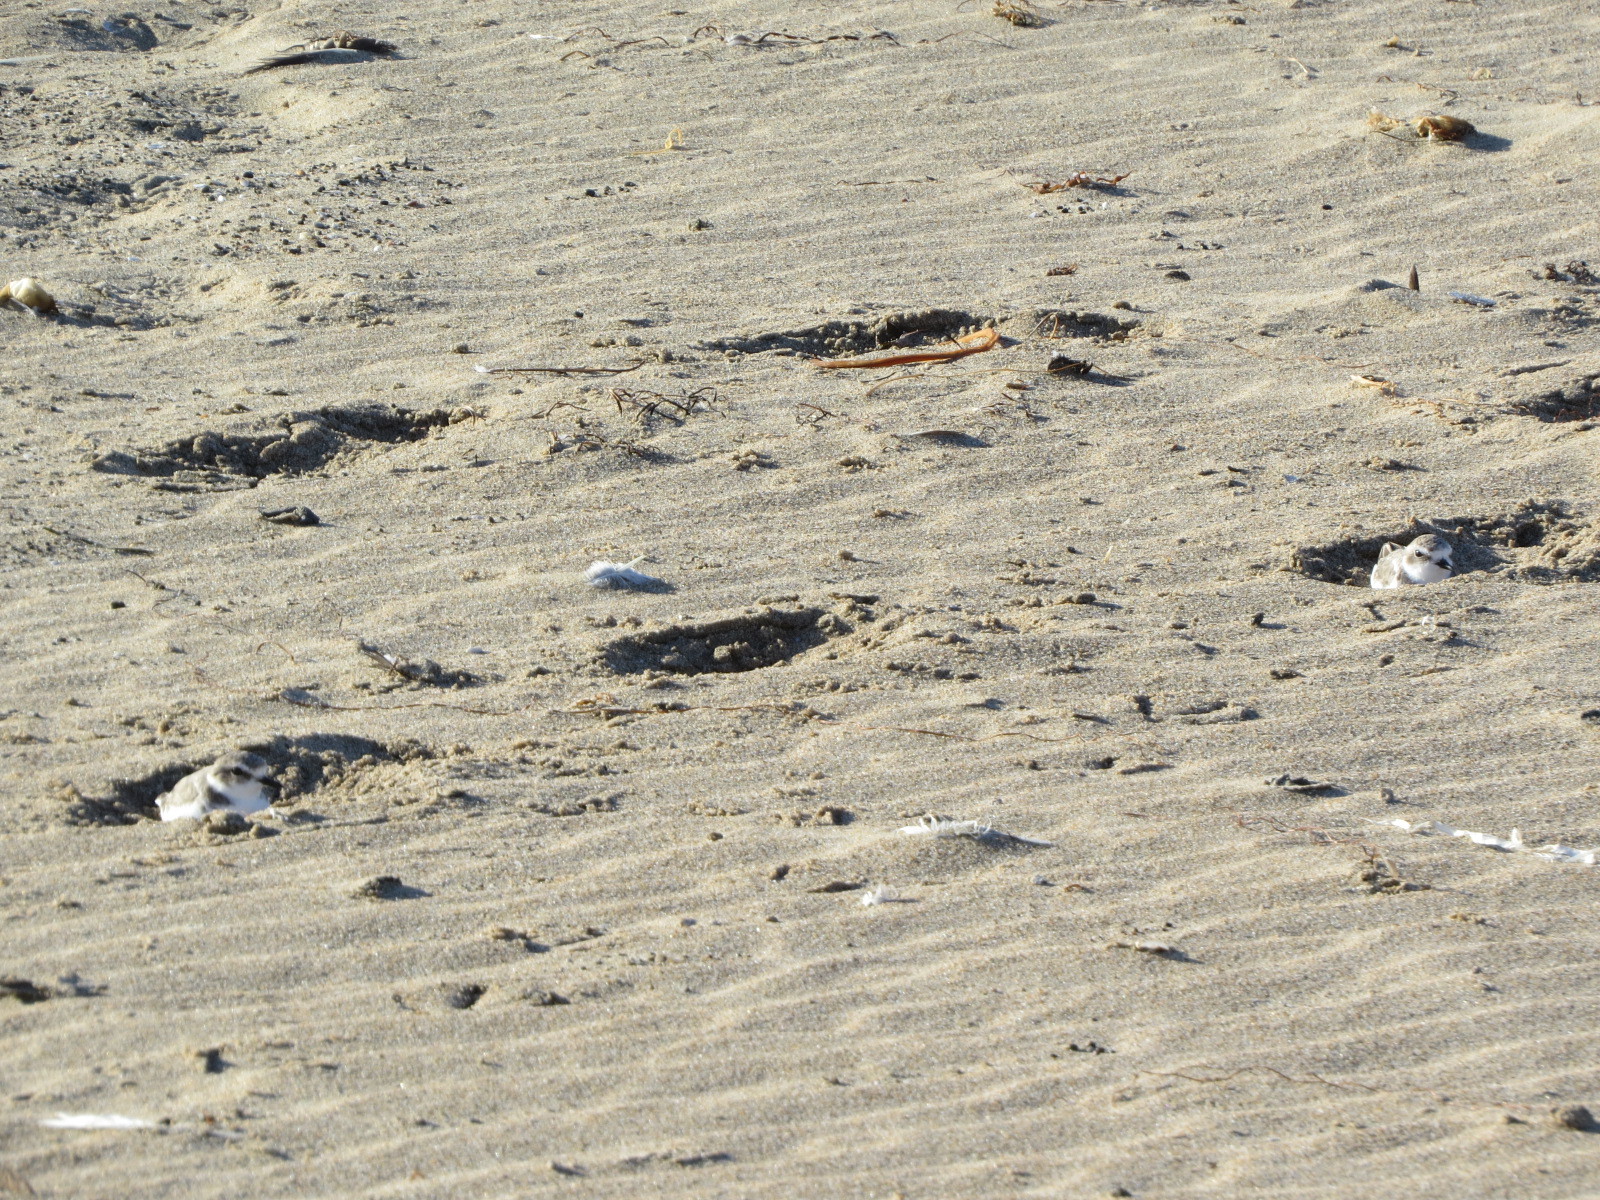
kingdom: Animalia
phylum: Chordata
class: Aves
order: Charadriiformes
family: Charadriidae
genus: Anarhynchus
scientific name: Anarhynchus
